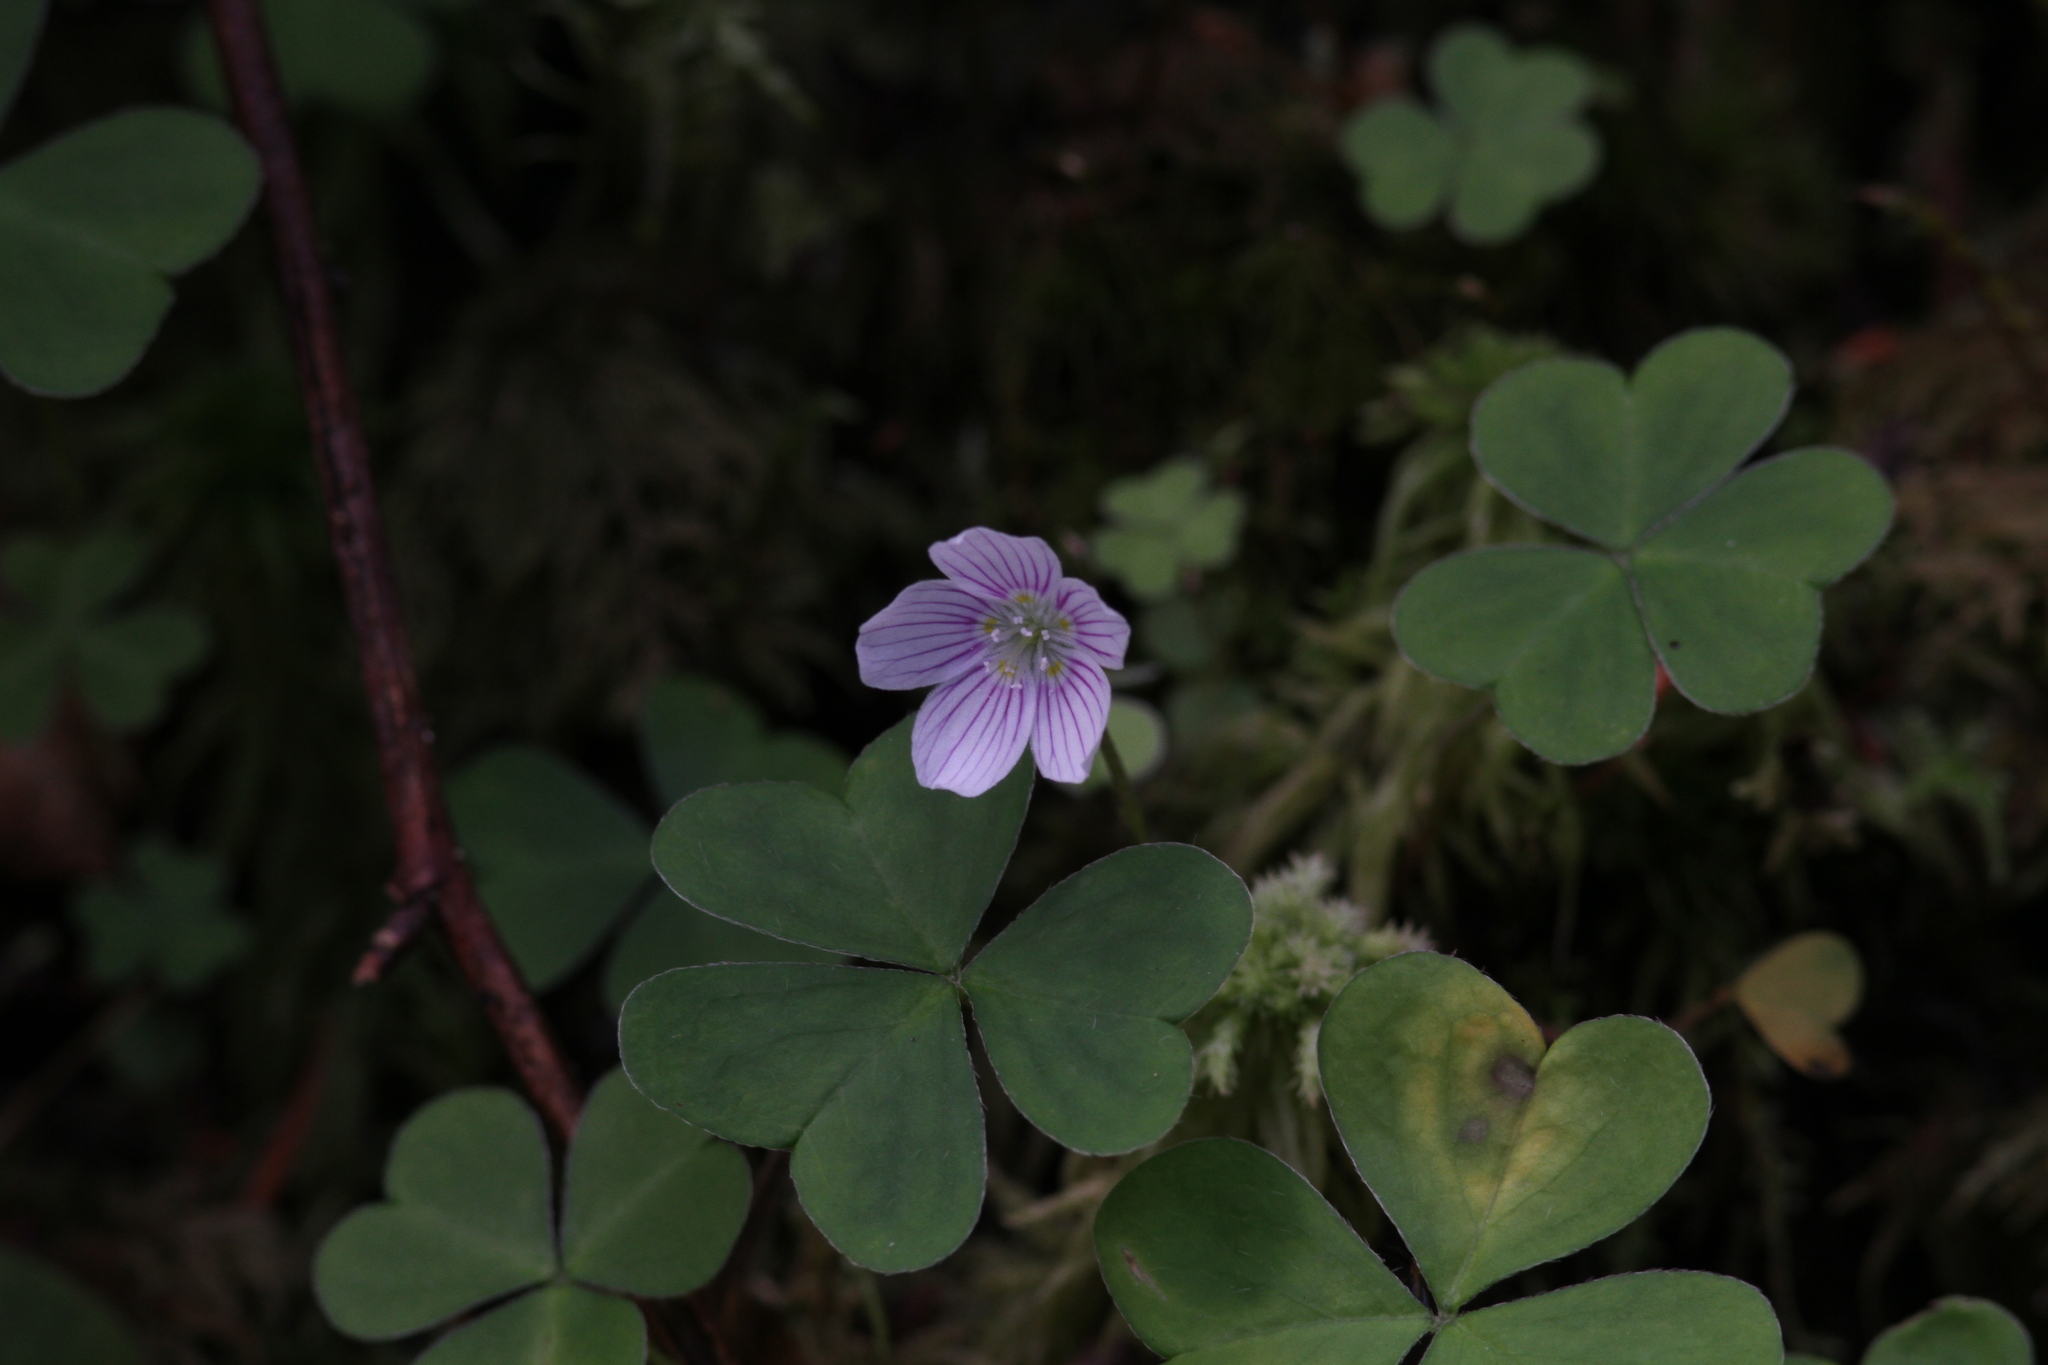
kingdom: Plantae
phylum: Tracheophyta
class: Magnoliopsida
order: Oxalidales
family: Oxalidaceae
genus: Oxalis
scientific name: Oxalis montana
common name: American wood-sorrel
